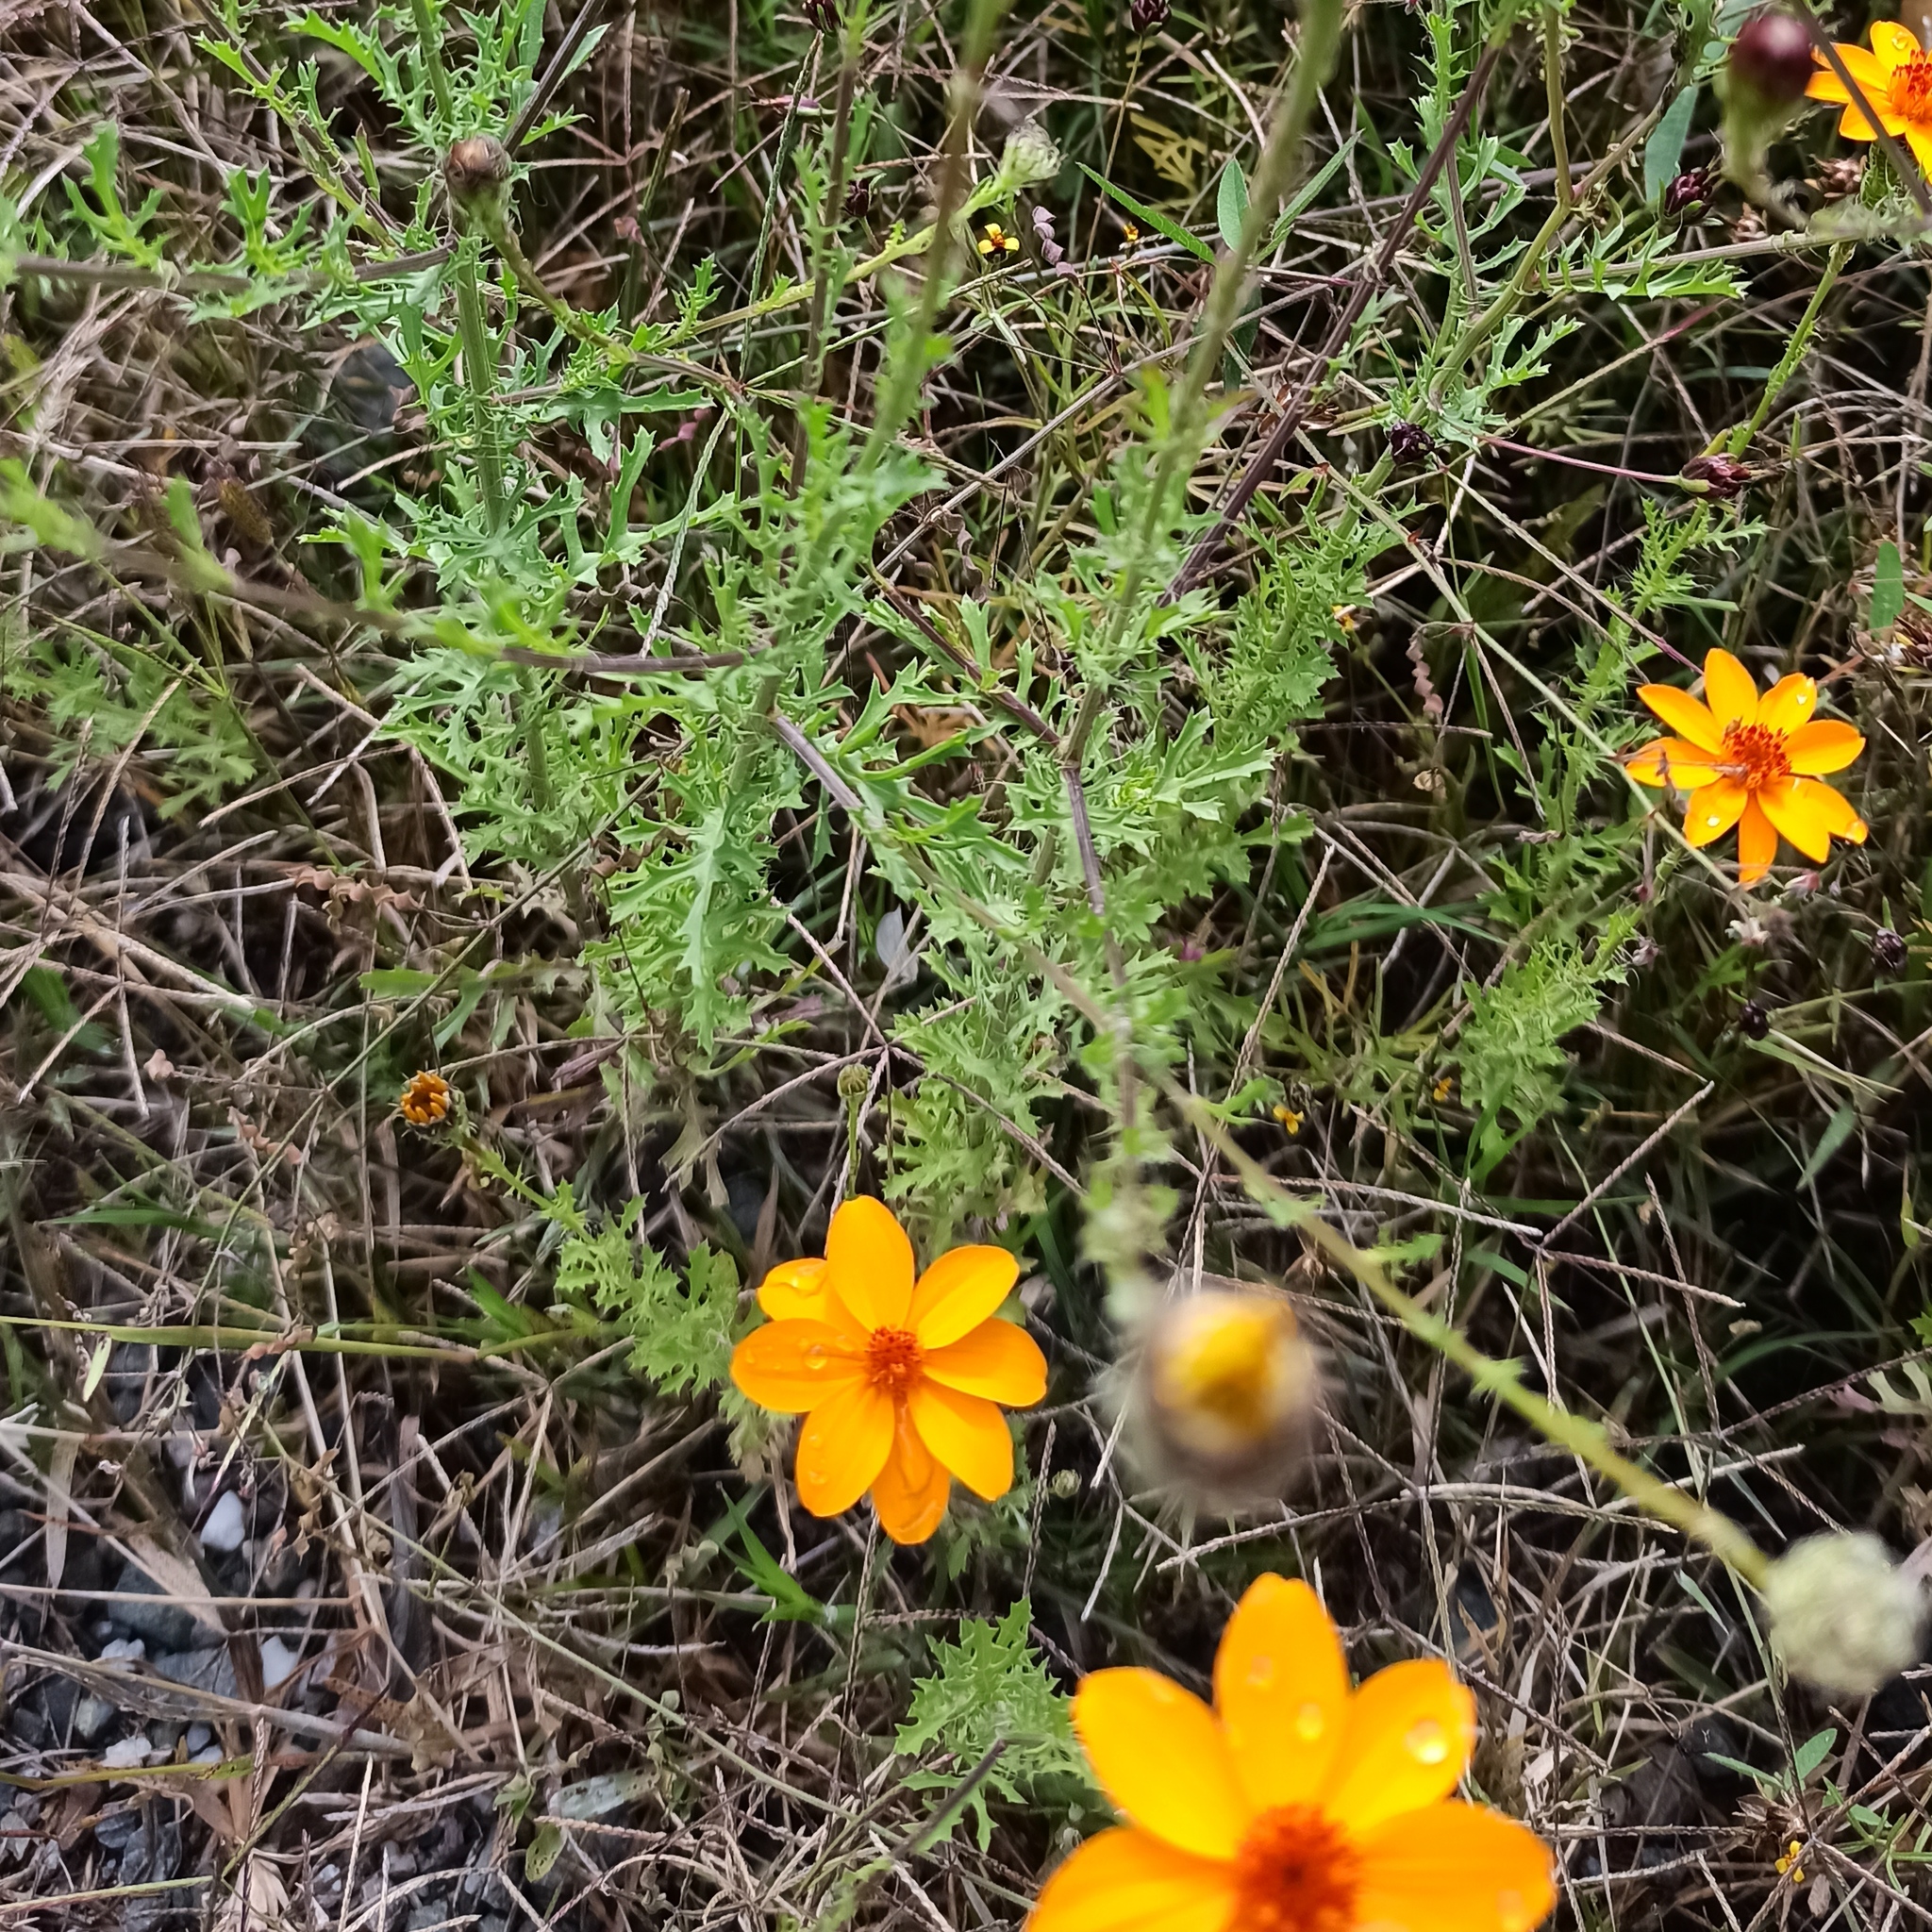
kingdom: Plantae
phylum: Tracheophyta
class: Magnoliopsida
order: Asterales
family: Asteraceae
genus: Adenophyllum
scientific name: Adenophyllum cancellatum
